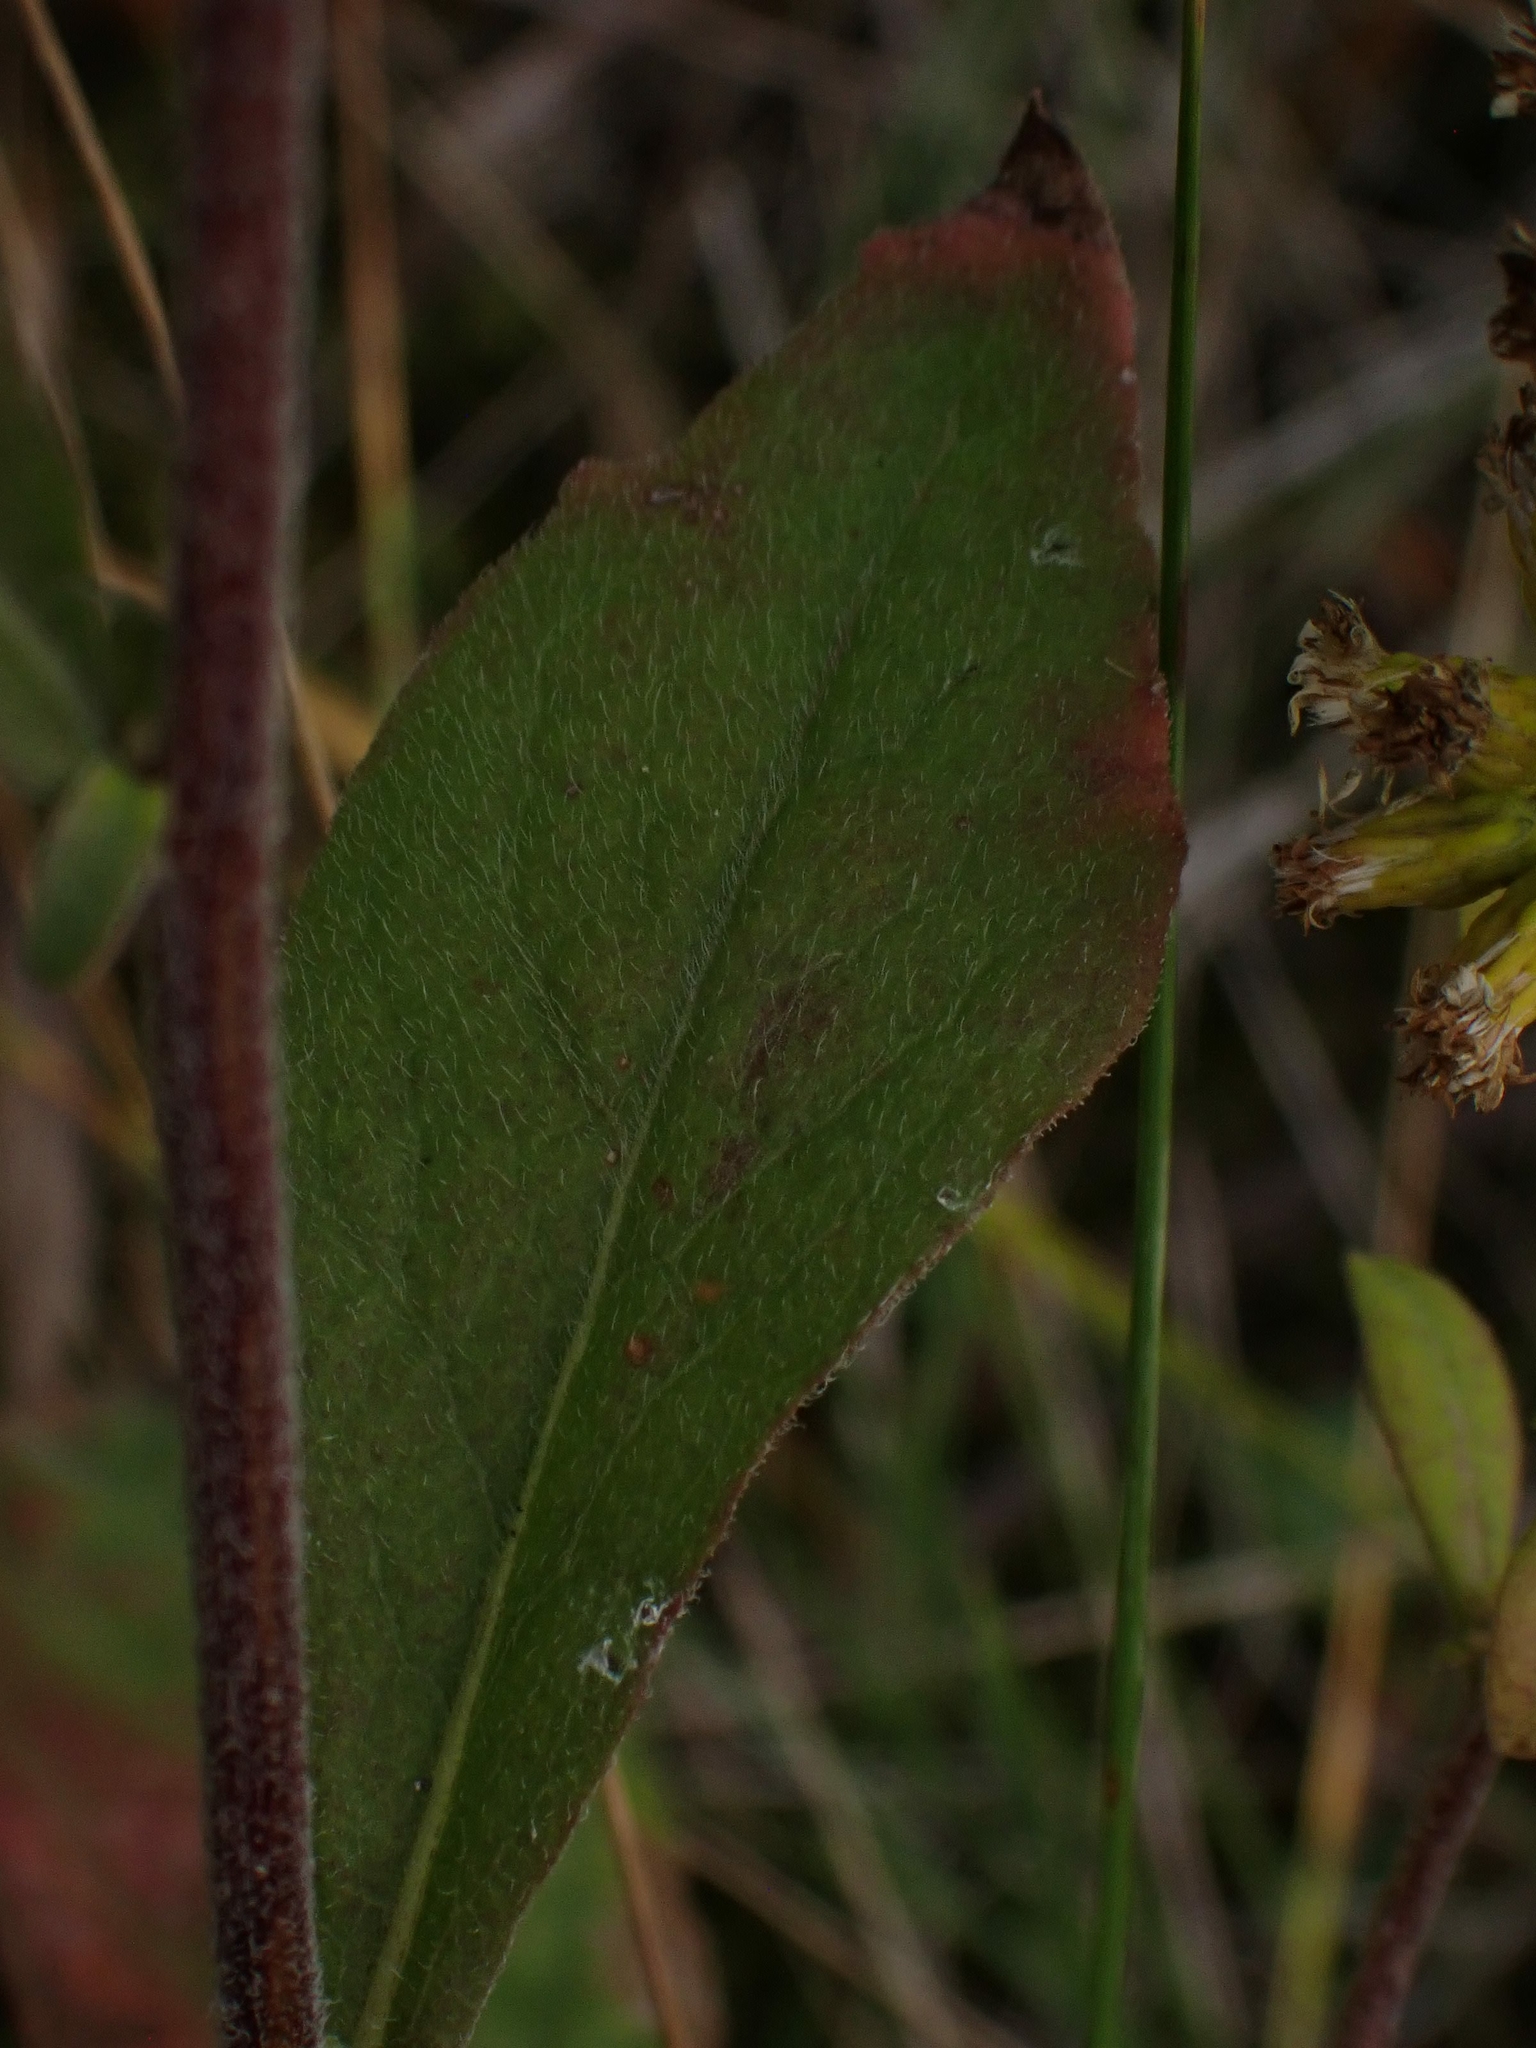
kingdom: Plantae
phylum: Tracheophyta
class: Magnoliopsida
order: Asterales
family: Asteraceae
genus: Solidago
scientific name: Solidago hispida
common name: Hairy goldenrod
